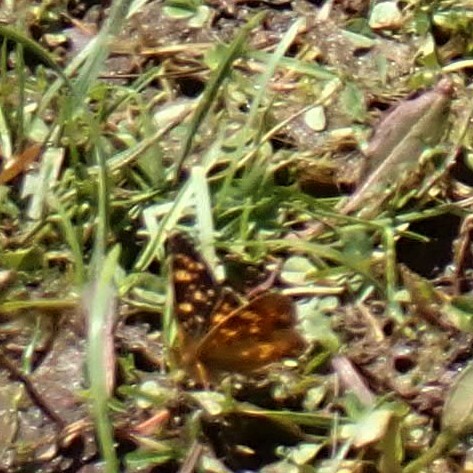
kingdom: Animalia
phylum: Arthropoda
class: Insecta
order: Lepidoptera
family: Nymphalidae
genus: Phyciodes
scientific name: Phyciodes tharos
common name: Pearl crescent
